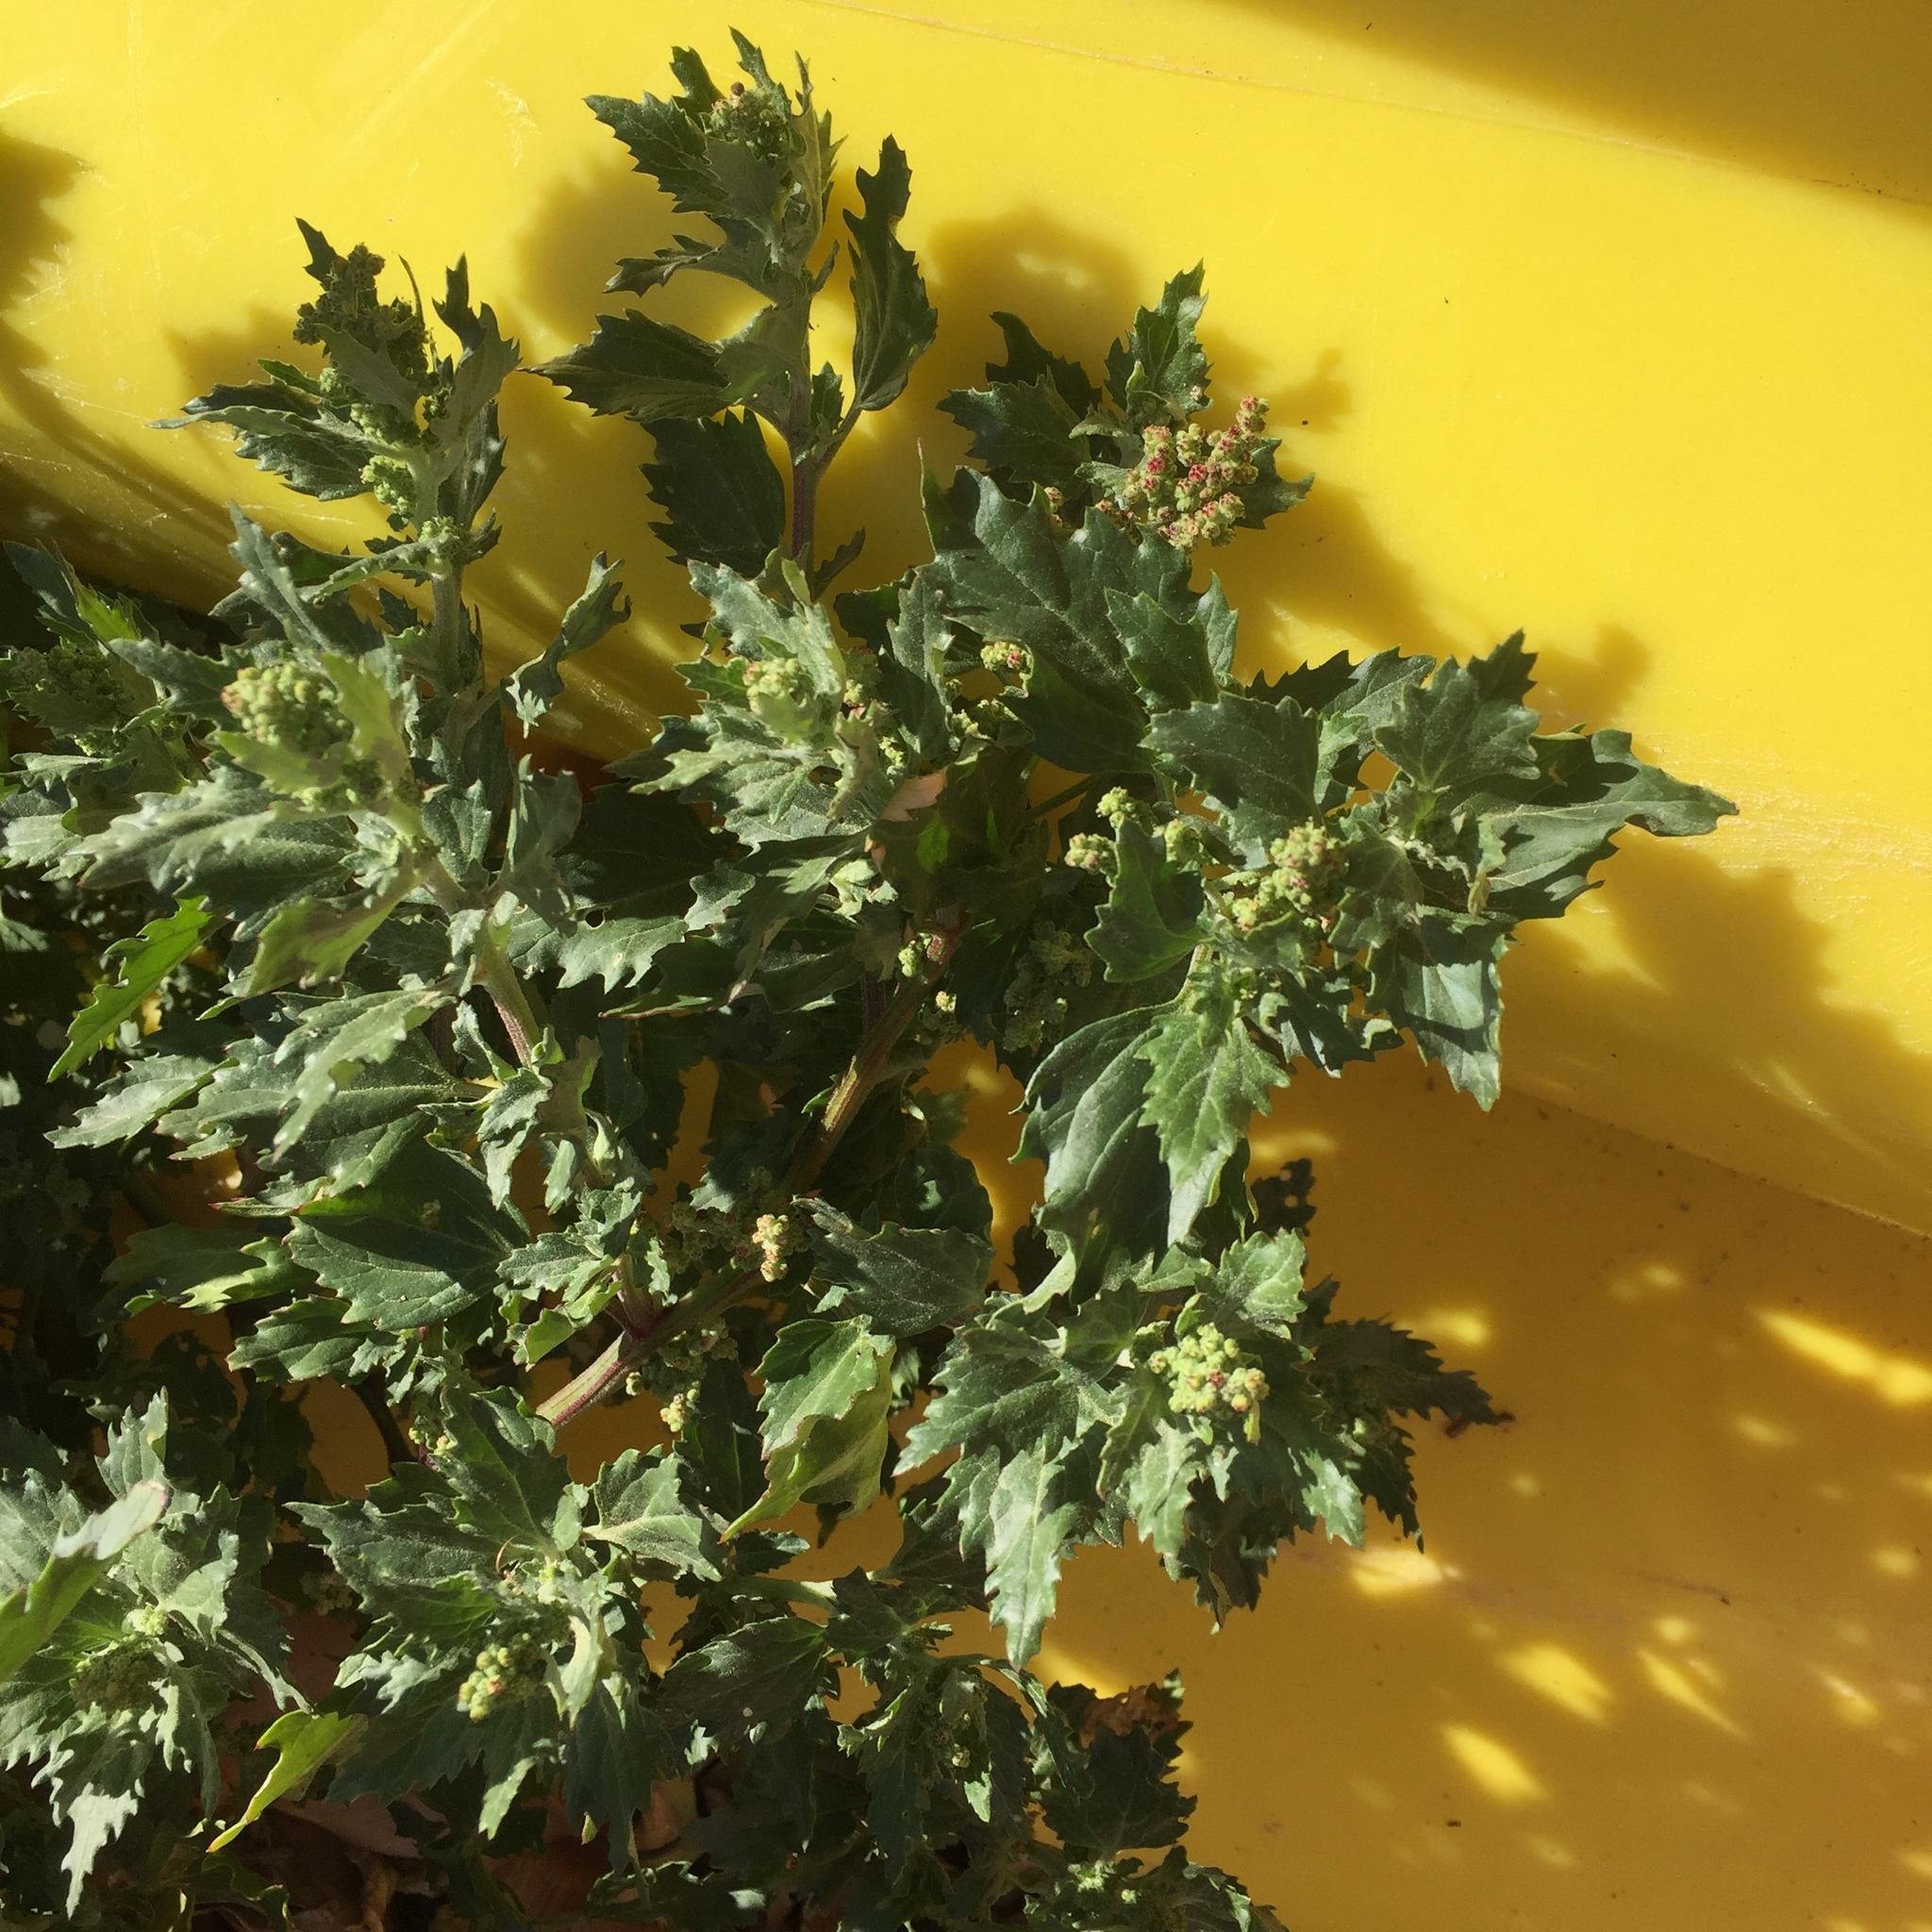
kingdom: Plantae
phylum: Tracheophyta
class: Magnoliopsida
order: Caryophyllales
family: Amaranthaceae
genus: Chenopodiastrum
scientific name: Chenopodiastrum murale
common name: Sowbane
